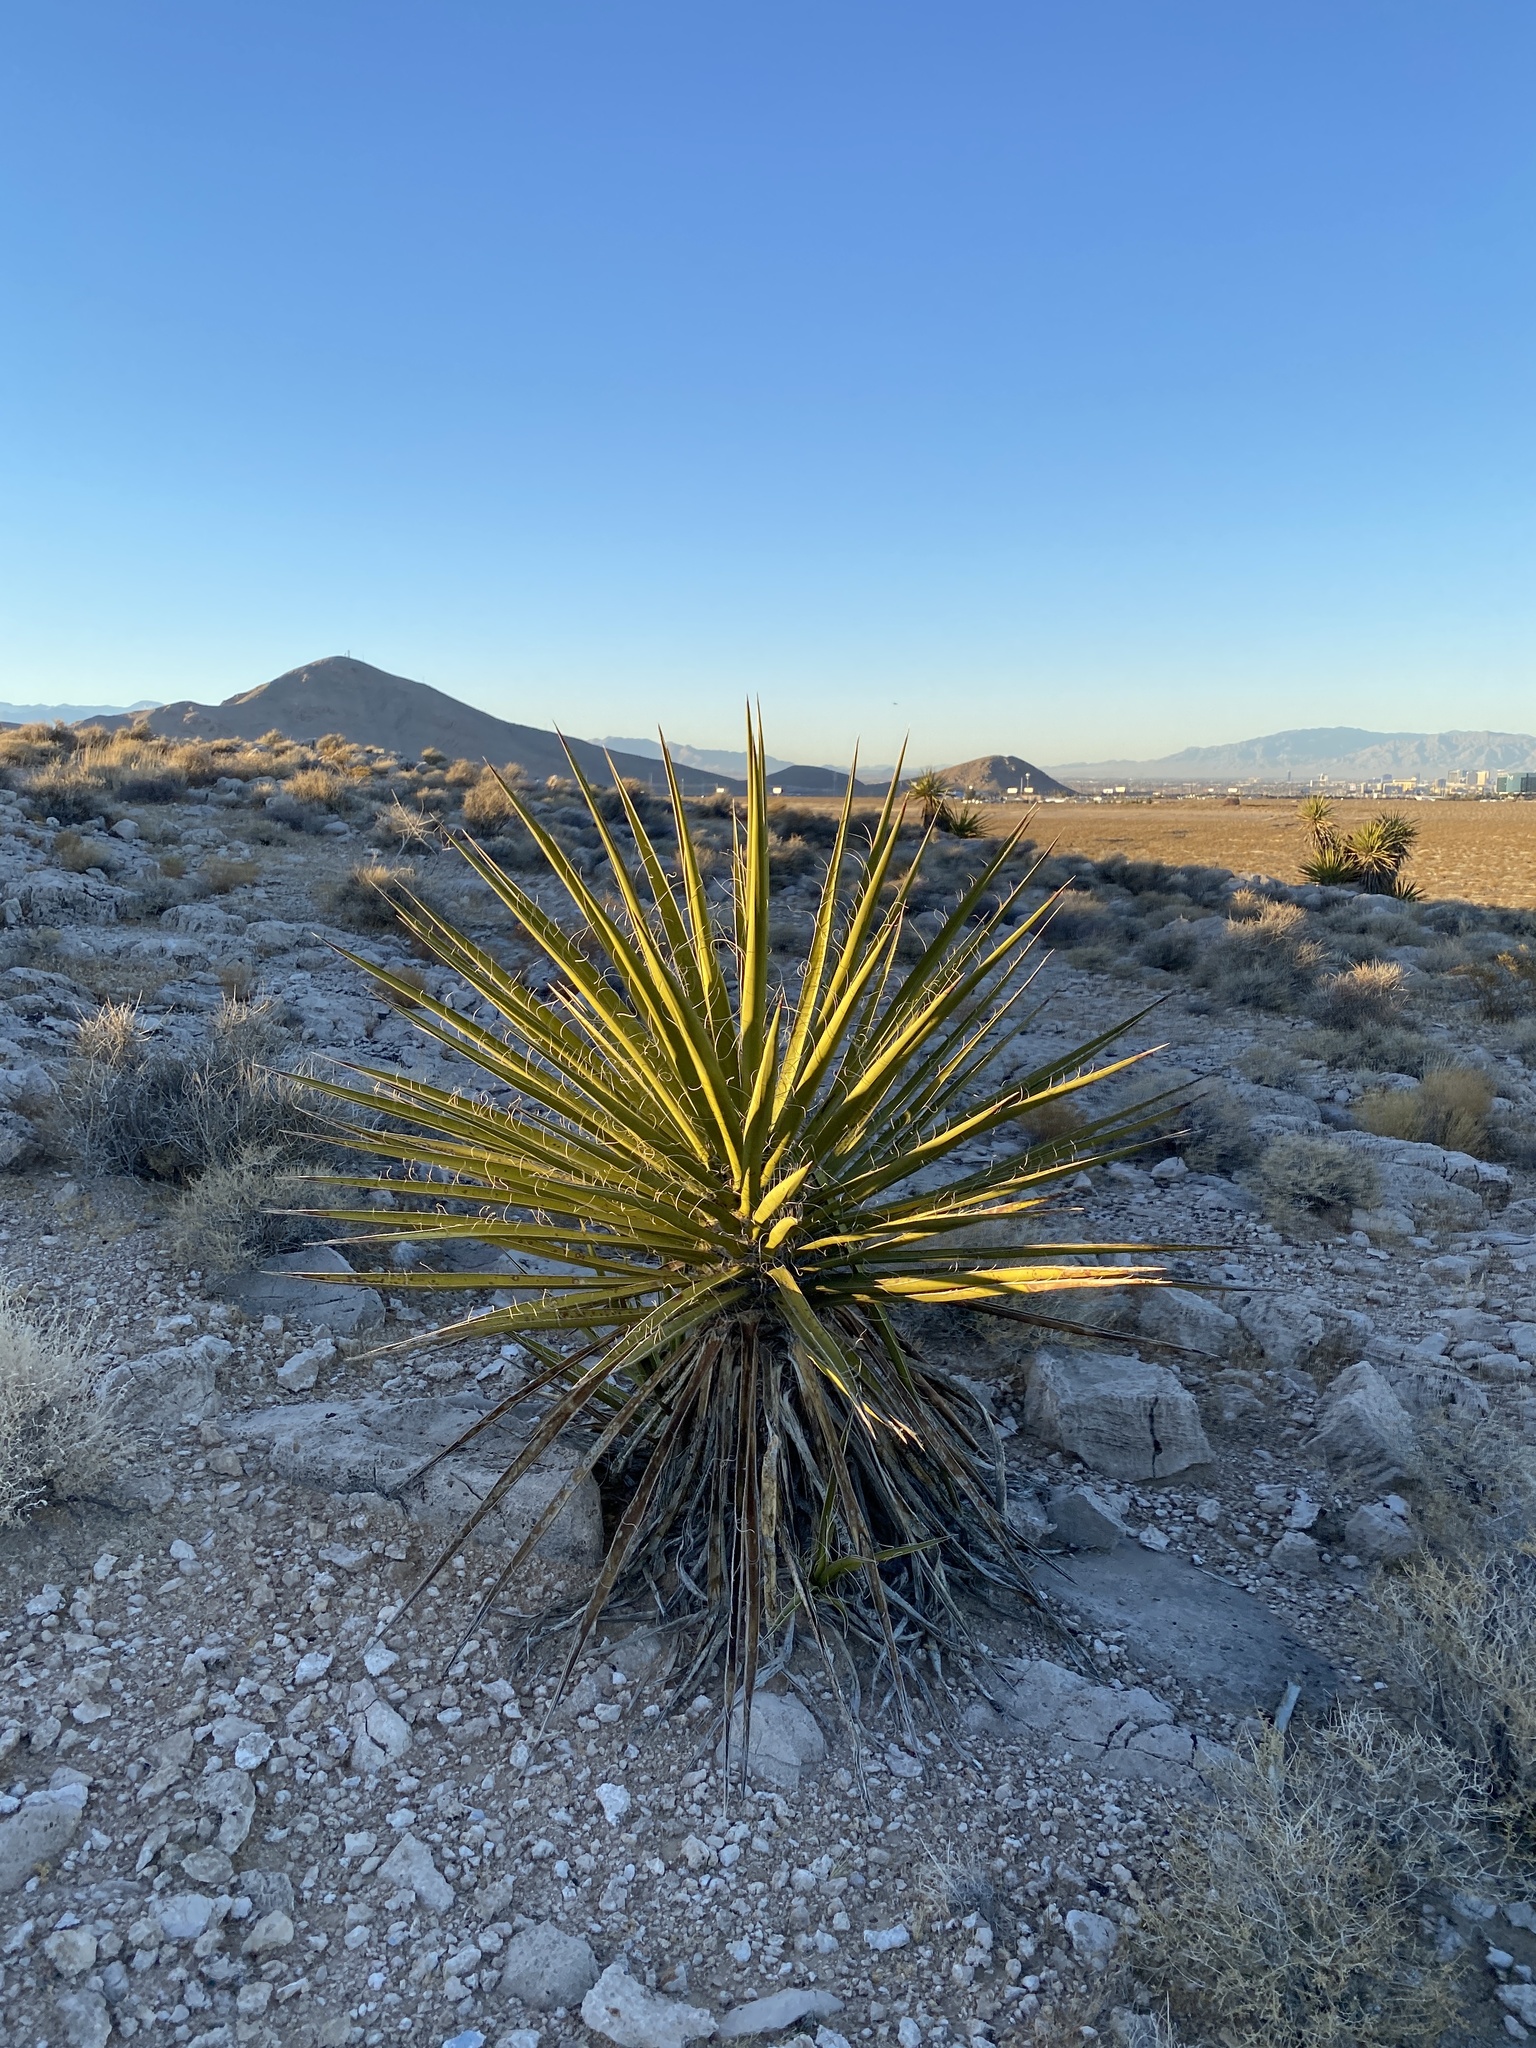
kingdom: Plantae
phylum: Tracheophyta
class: Liliopsida
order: Asparagales
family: Asparagaceae
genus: Yucca
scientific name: Yucca schidigera
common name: Mojave yucca
